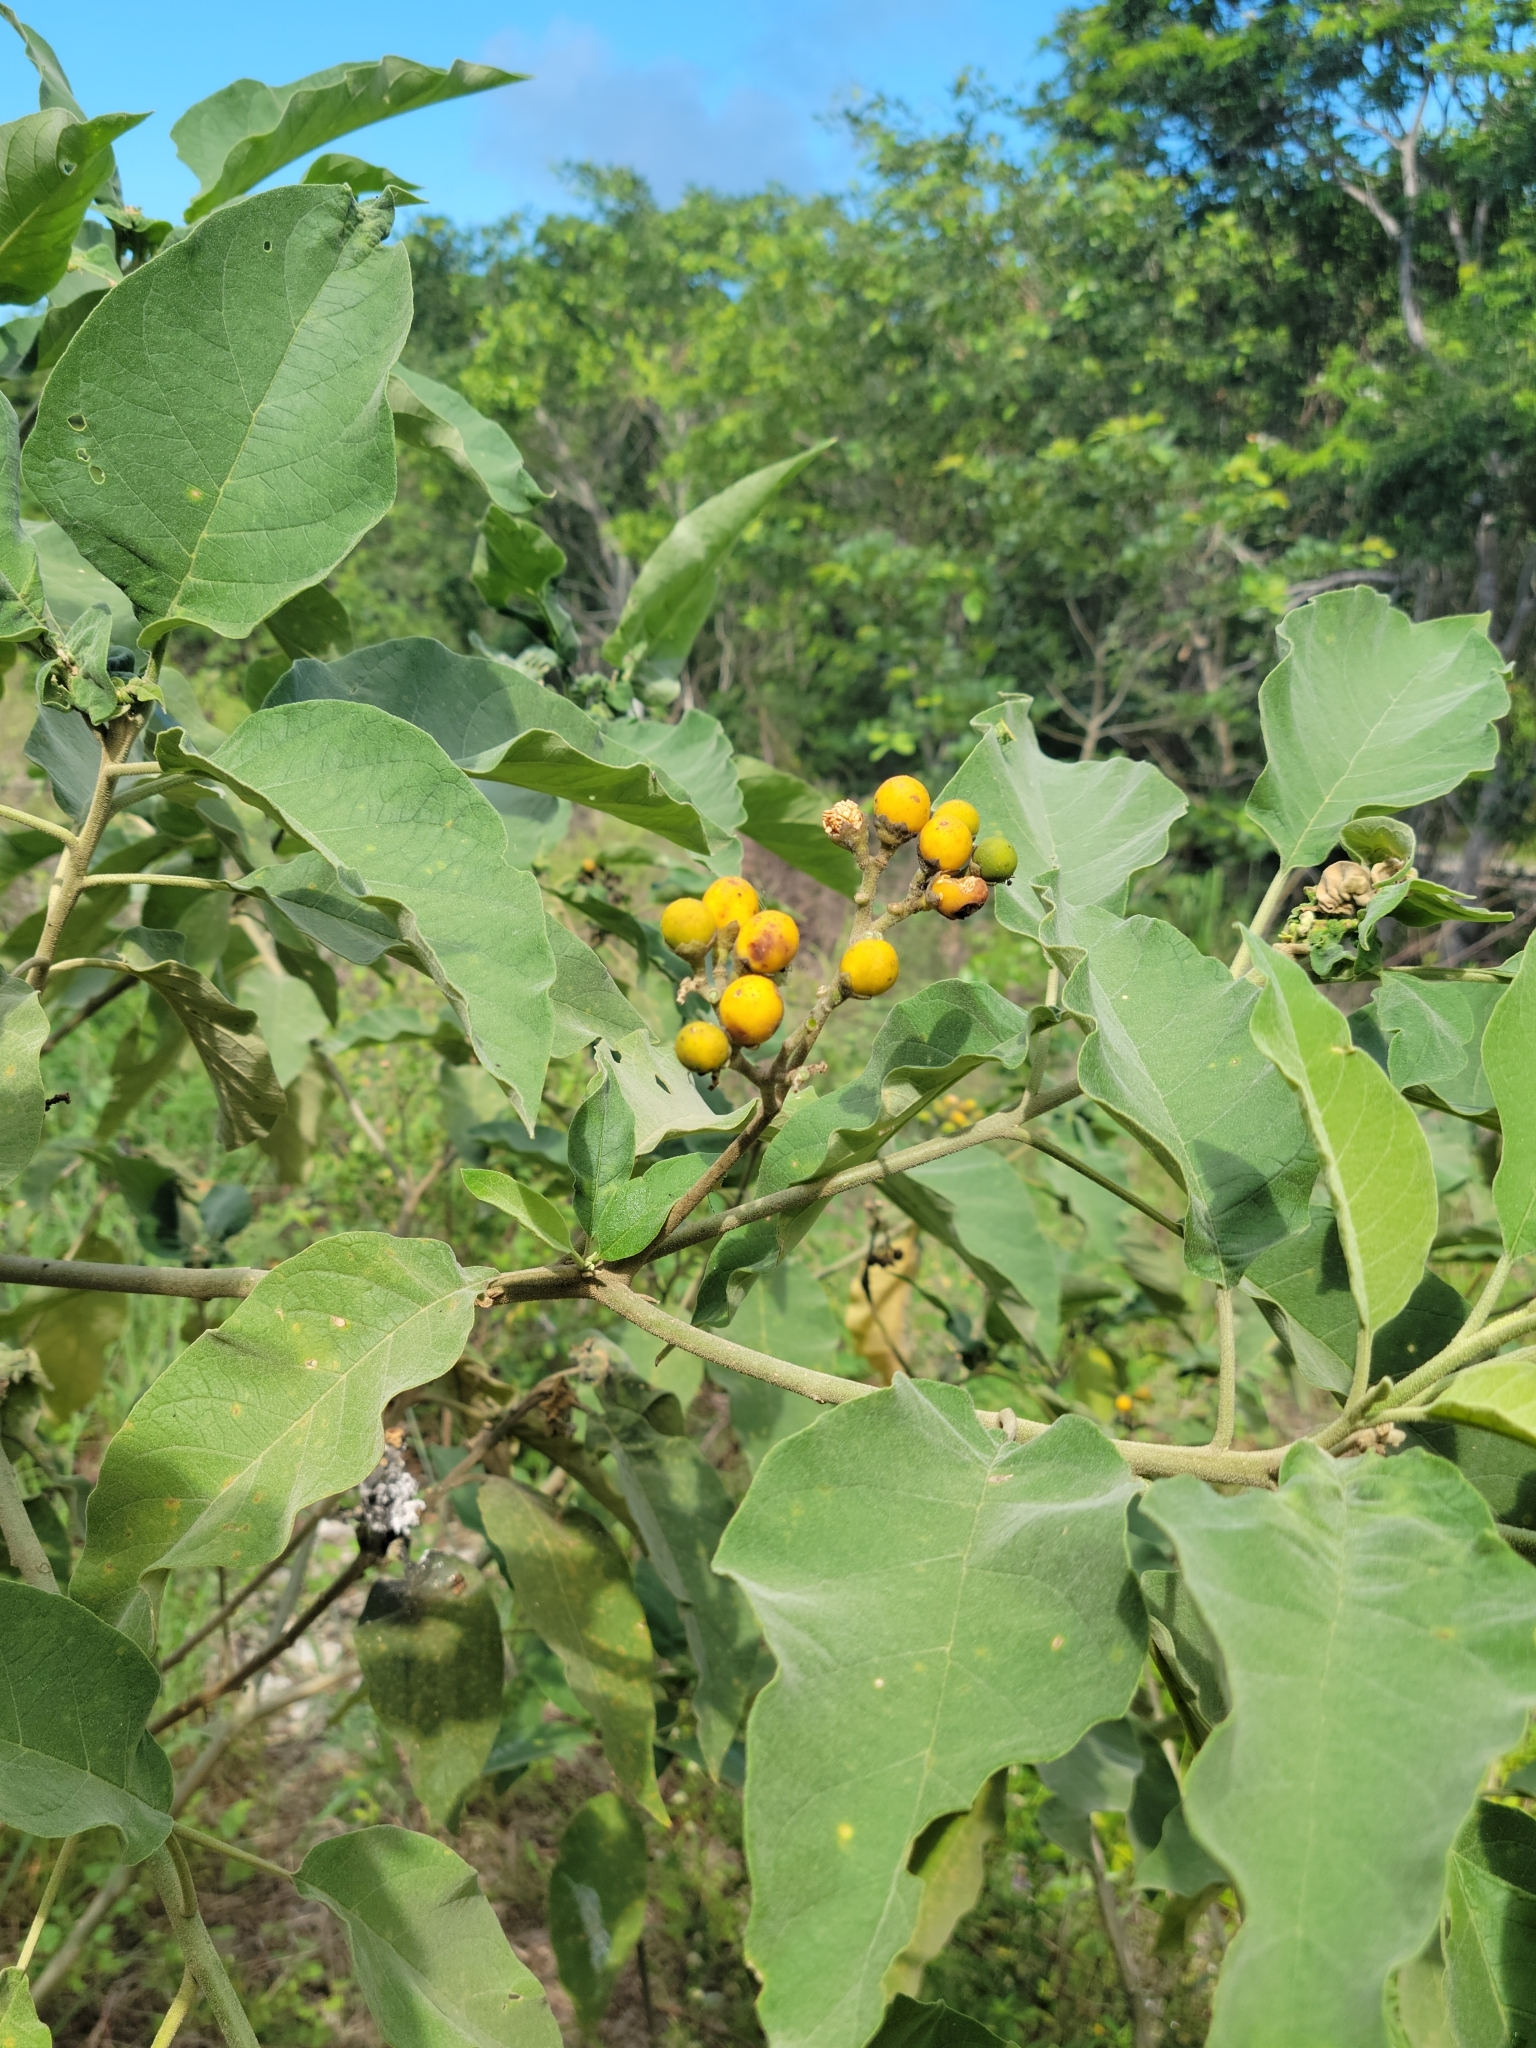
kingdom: Plantae
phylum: Tracheophyta
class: Magnoliopsida
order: Solanales
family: Solanaceae
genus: Solanum
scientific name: Solanum erianthum
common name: Tobacco-tree
